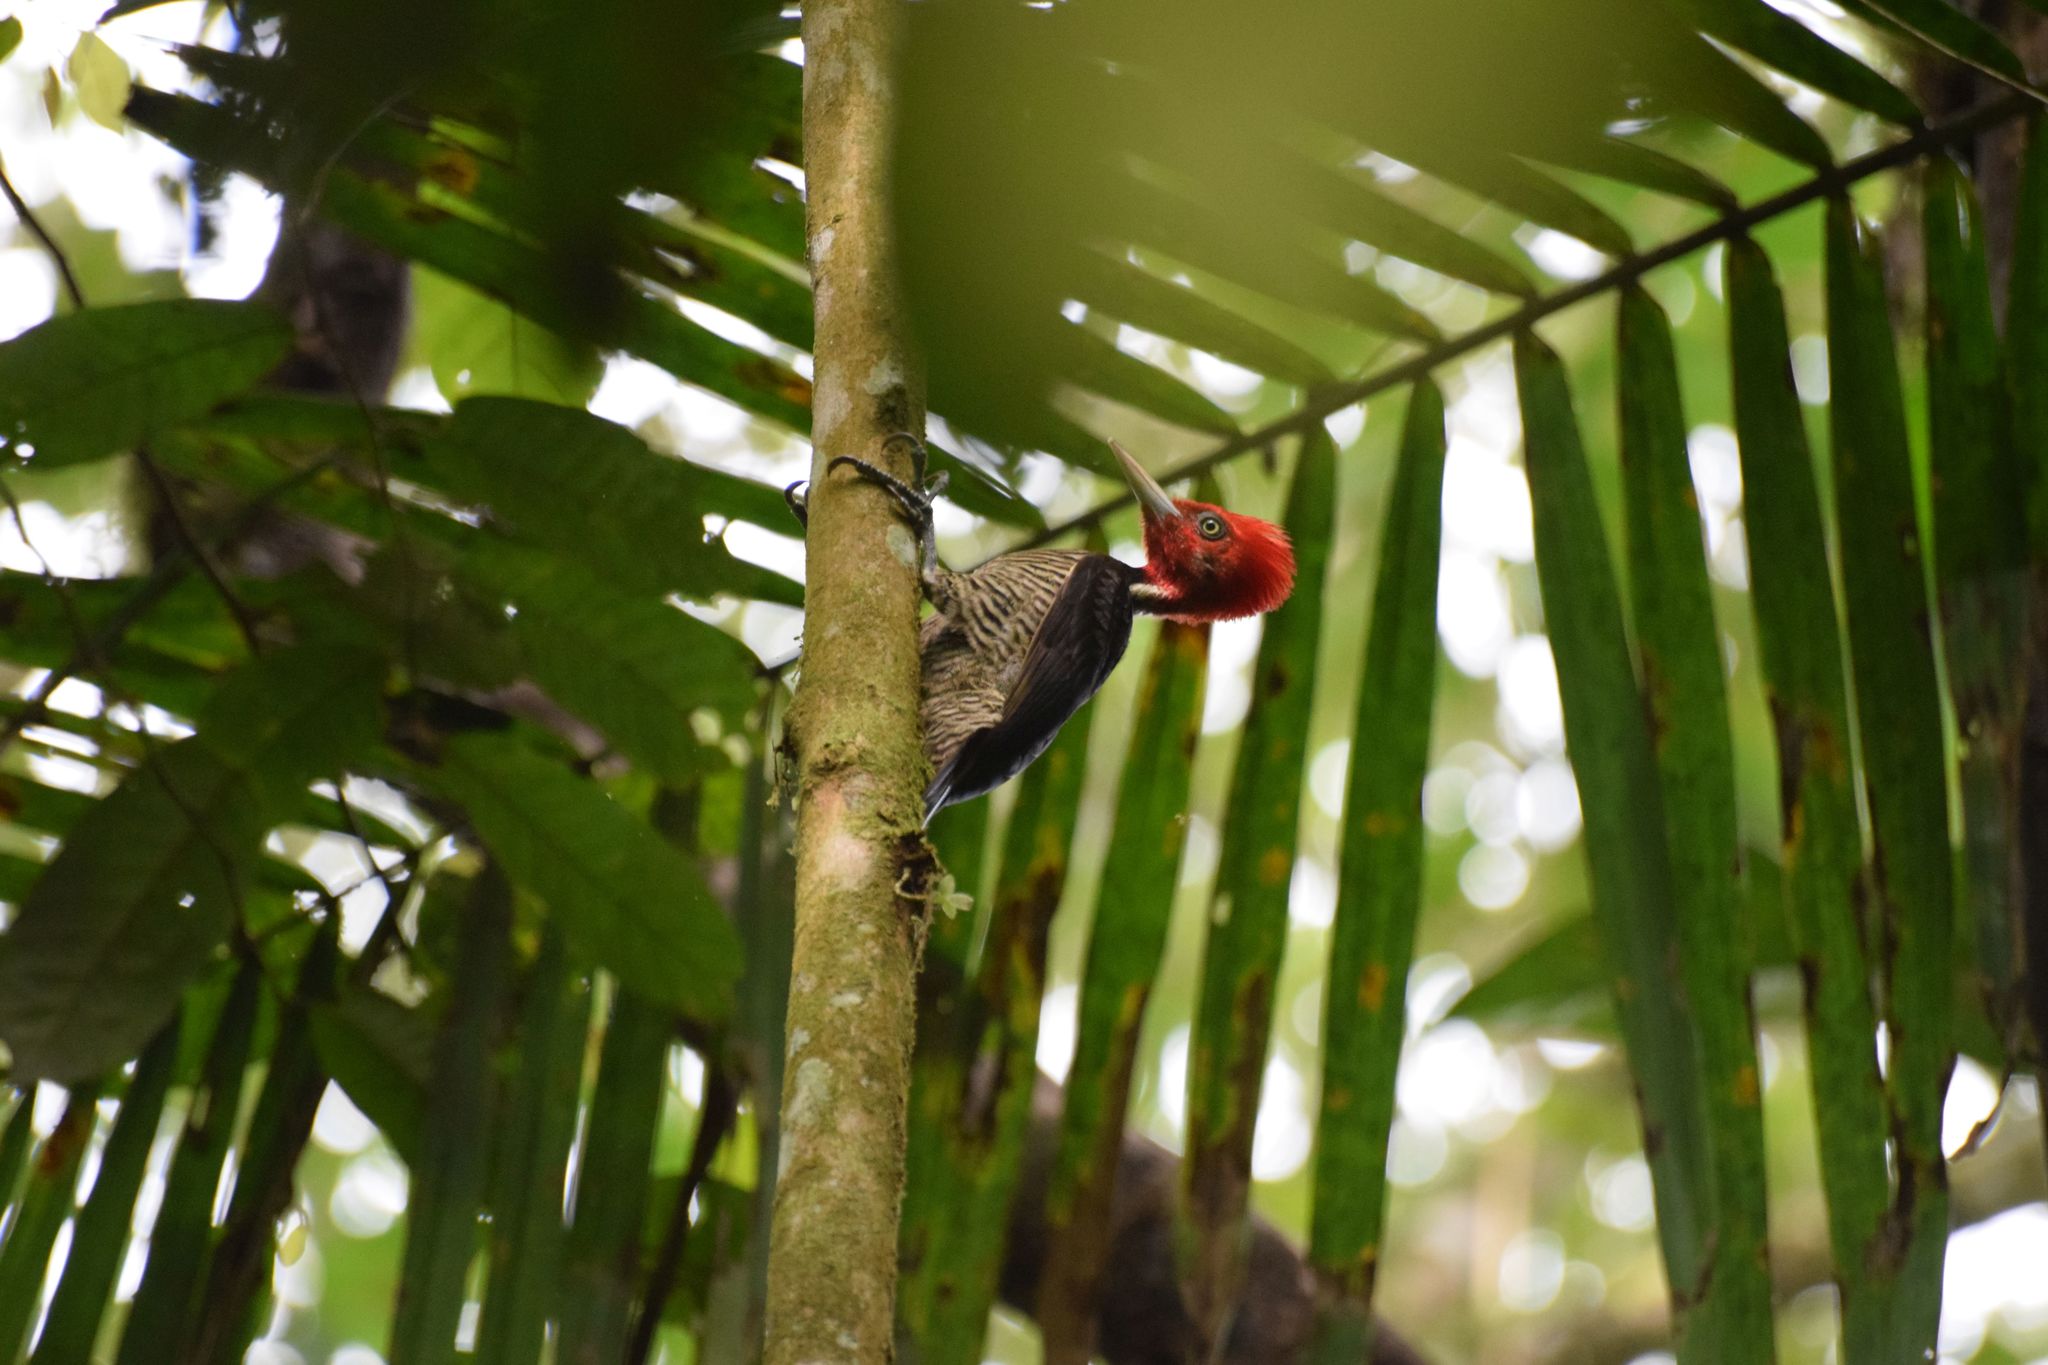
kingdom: Animalia
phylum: Chordata
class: Aves
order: Piciformes
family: Picidae
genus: Campephilus
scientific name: Campephilus guatemalensis
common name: Pale-billed woodpecker
